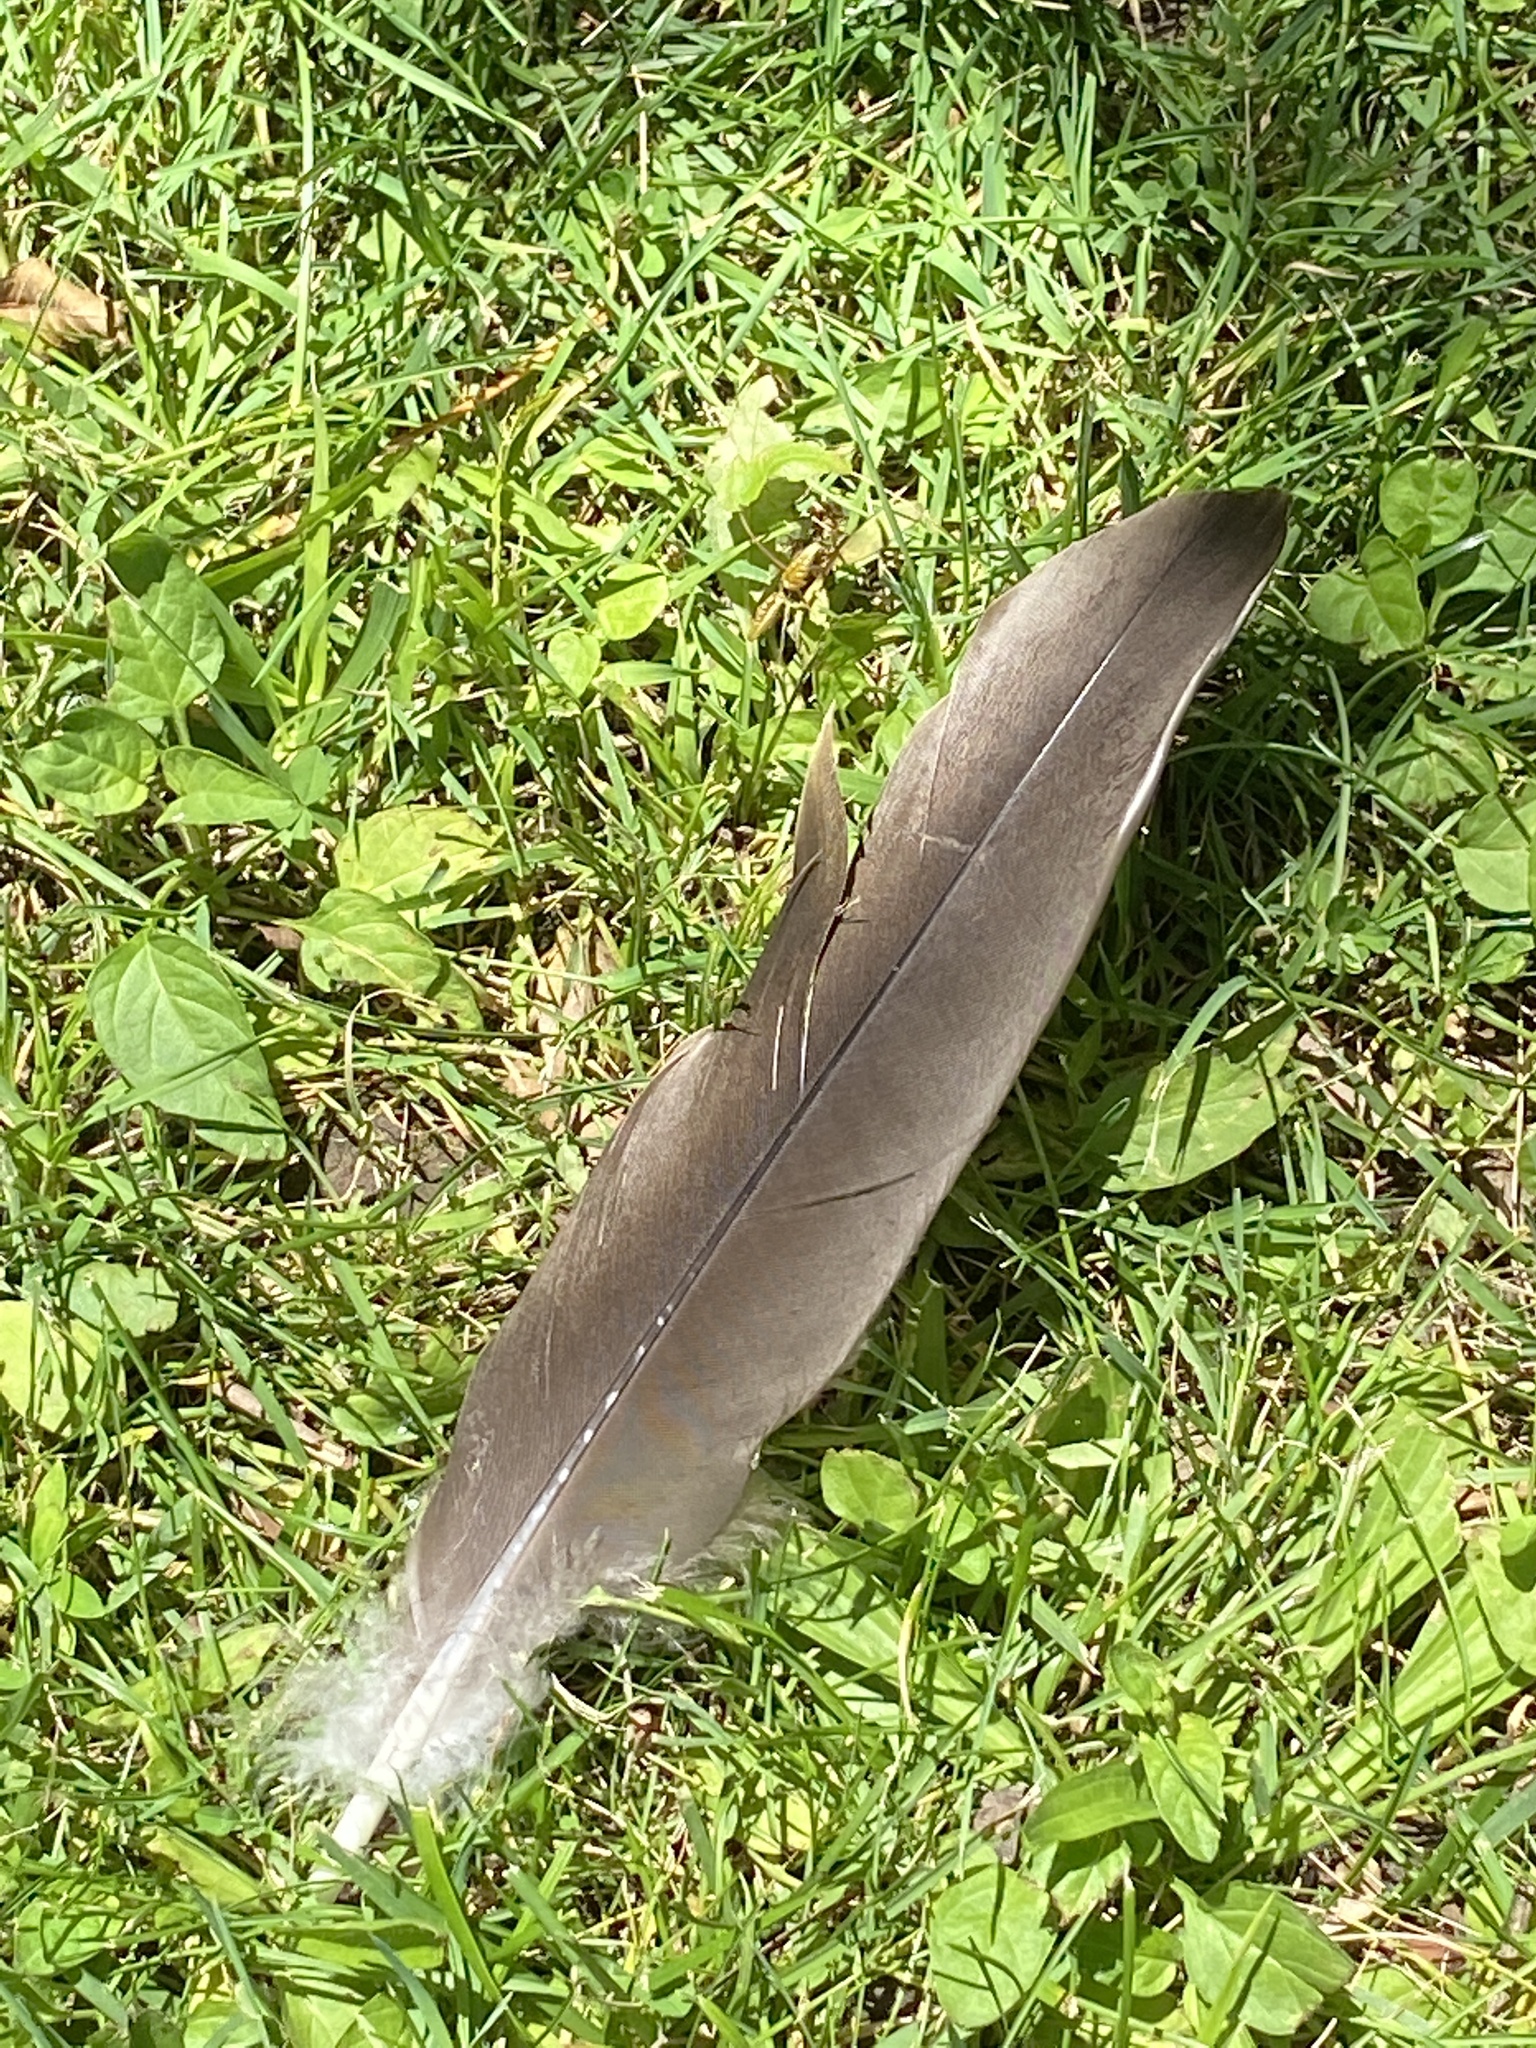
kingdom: Animalia
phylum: Chordata
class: Aves
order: Anseriformes
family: Anatidae
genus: Branta
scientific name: Branta canadensis
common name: Canada goose
